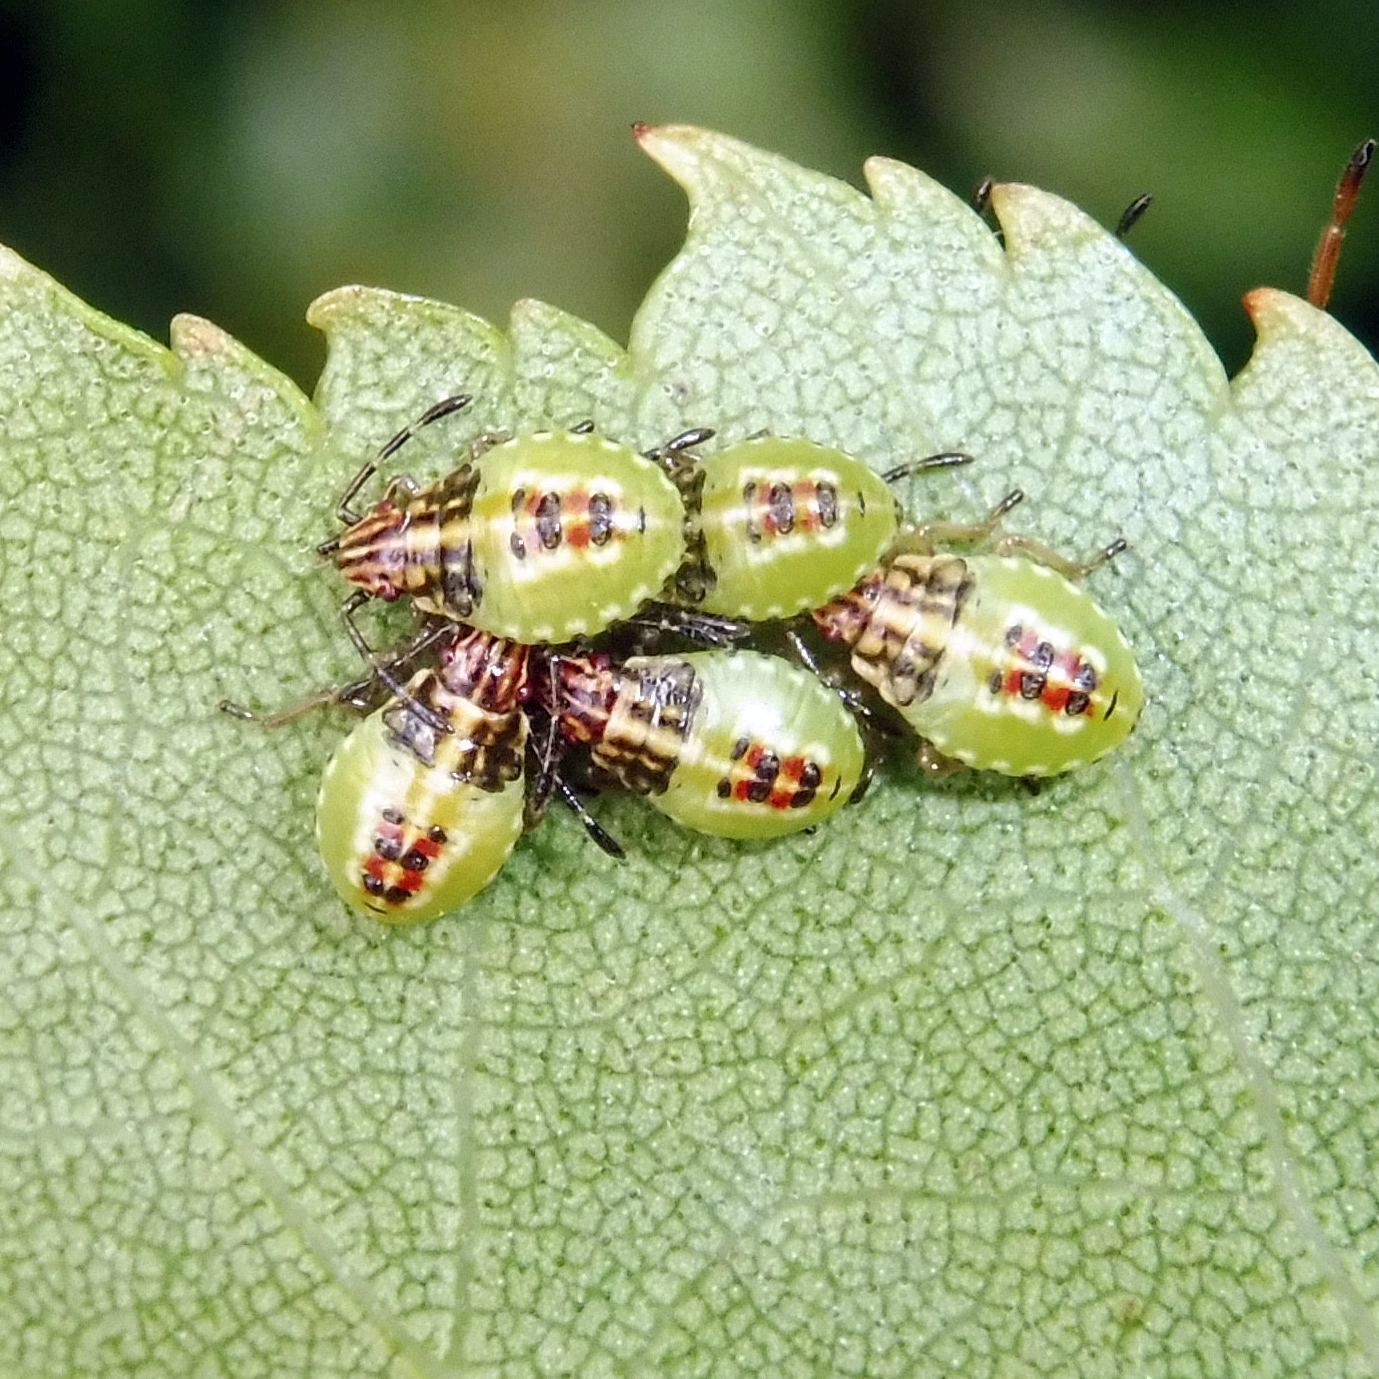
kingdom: Animalia
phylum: Arthropoda
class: Insecta
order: Hemiptera
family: Acanthosomatidae
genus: Elasmucha
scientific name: Elasmucha grisea
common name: Parent bug
